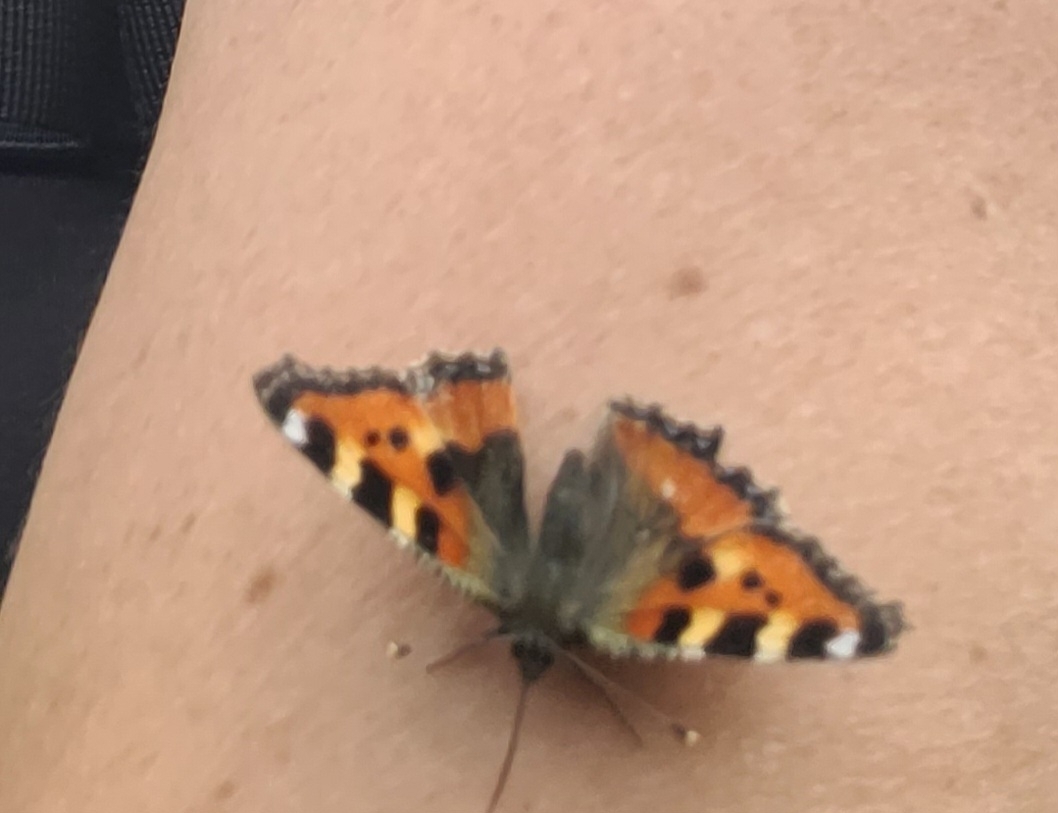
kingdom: Animalia
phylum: Arthropoda
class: Insecta
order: Lepidoptera
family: Nymphalidae
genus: Aglais
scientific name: Aglais urticae
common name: Small tortoiseshell
